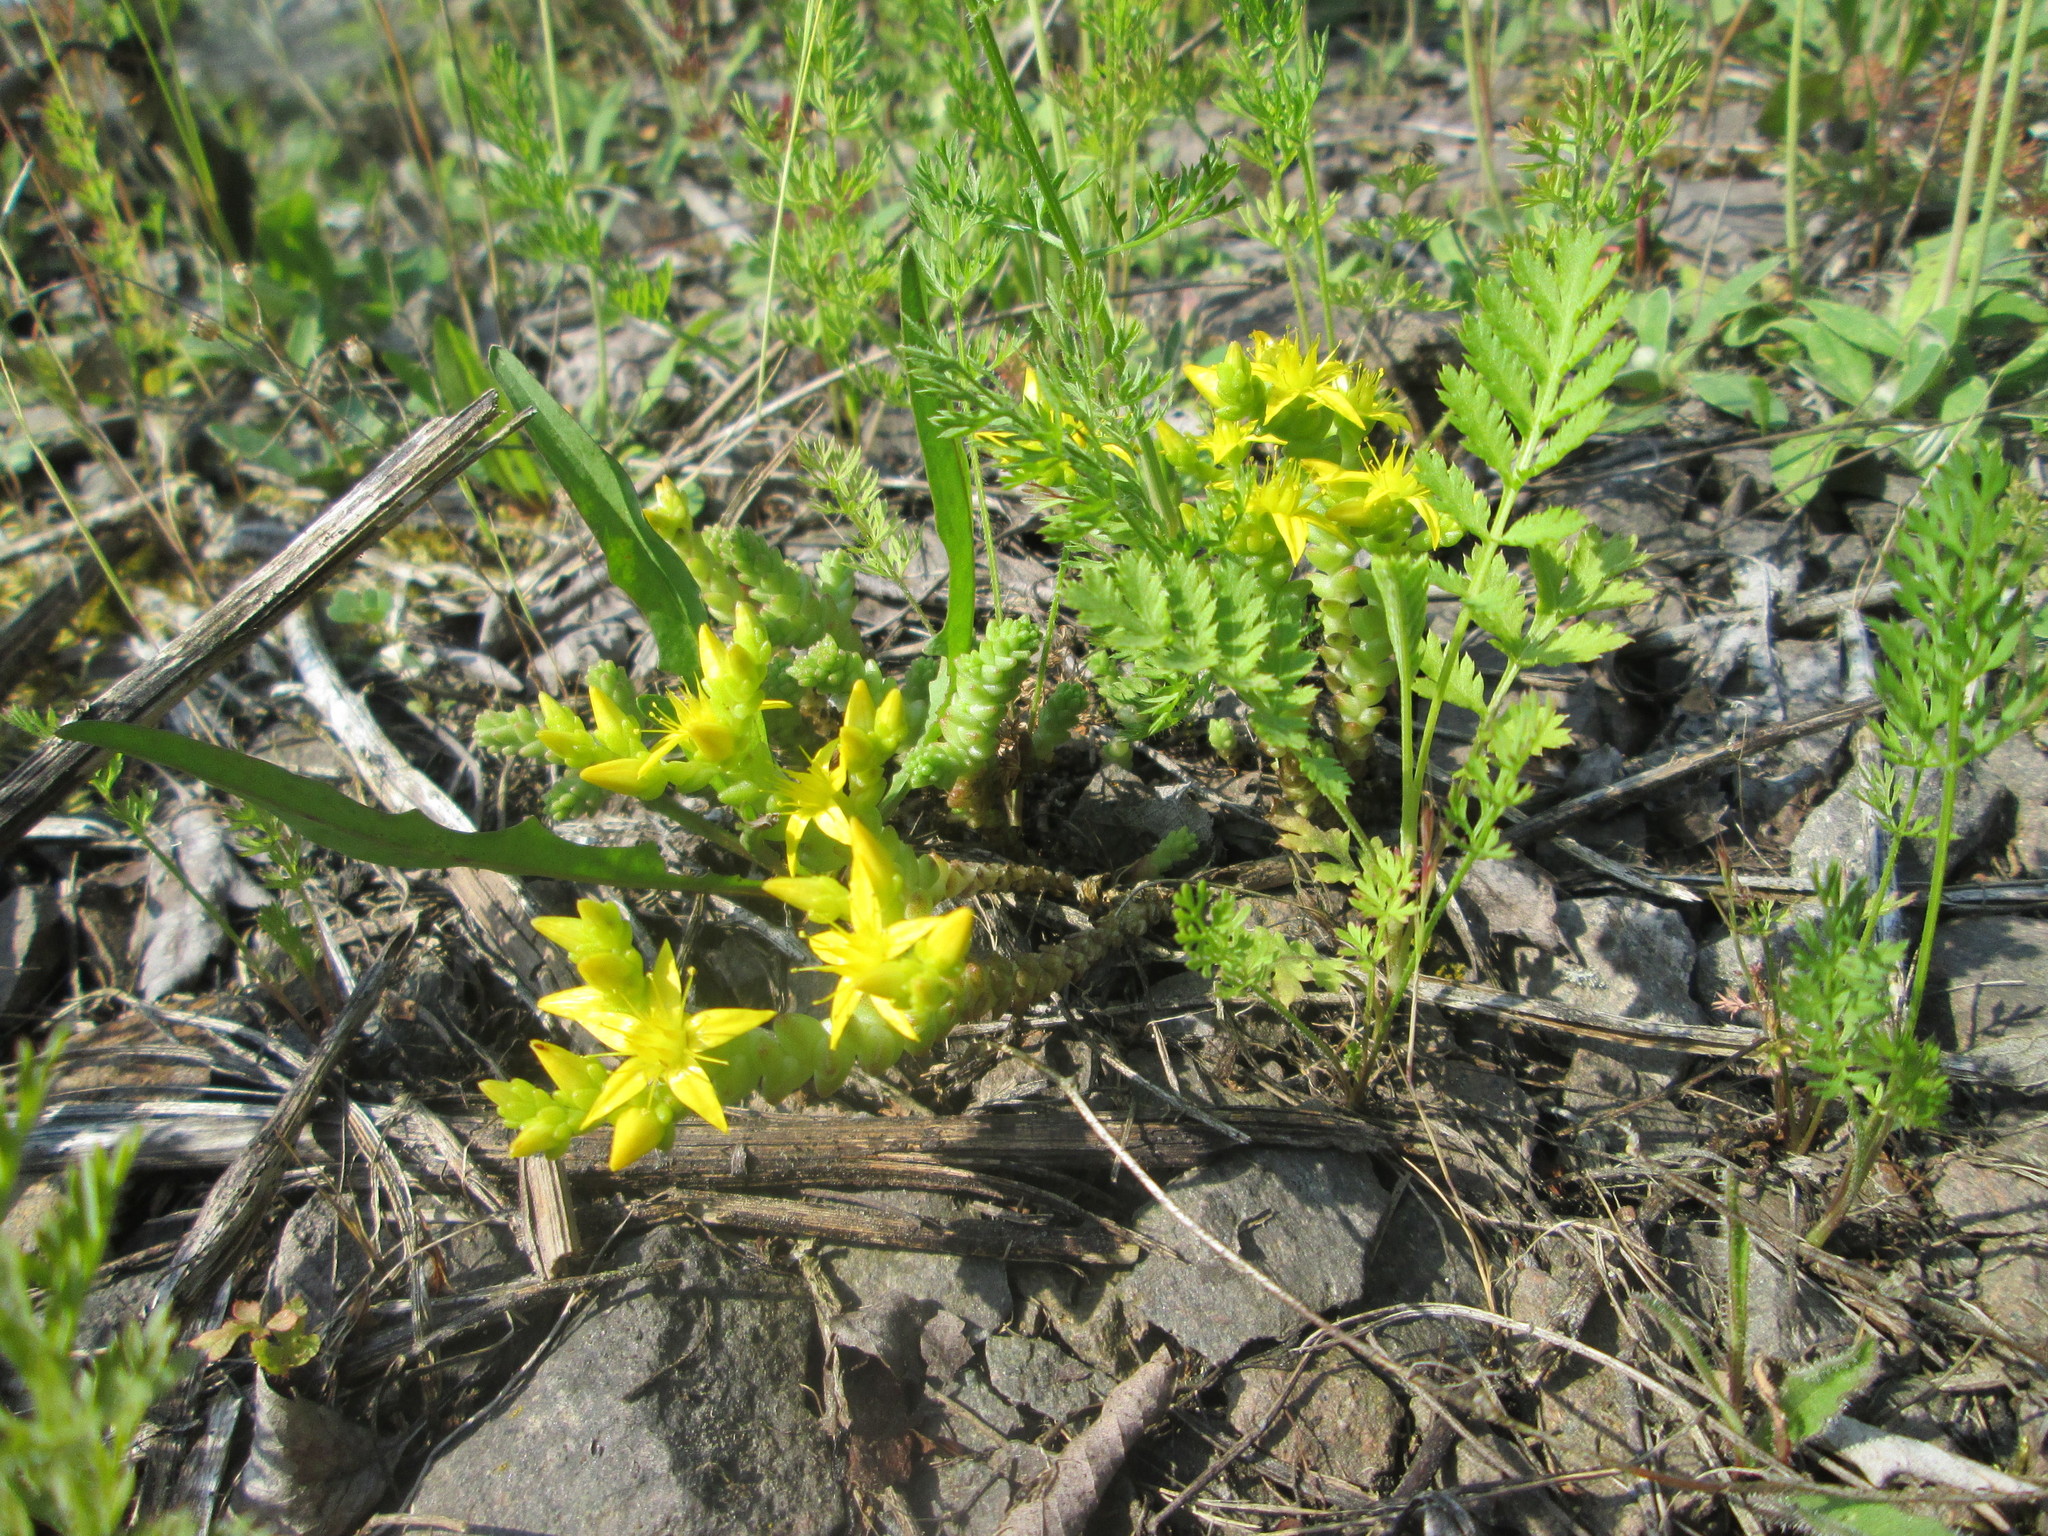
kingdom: Plantae
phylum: Tracheophyta
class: Magnoliopsida
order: Saxifragales
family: Crassulaceae
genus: Sedum
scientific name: Sedum acre
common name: Biting stonecrop
